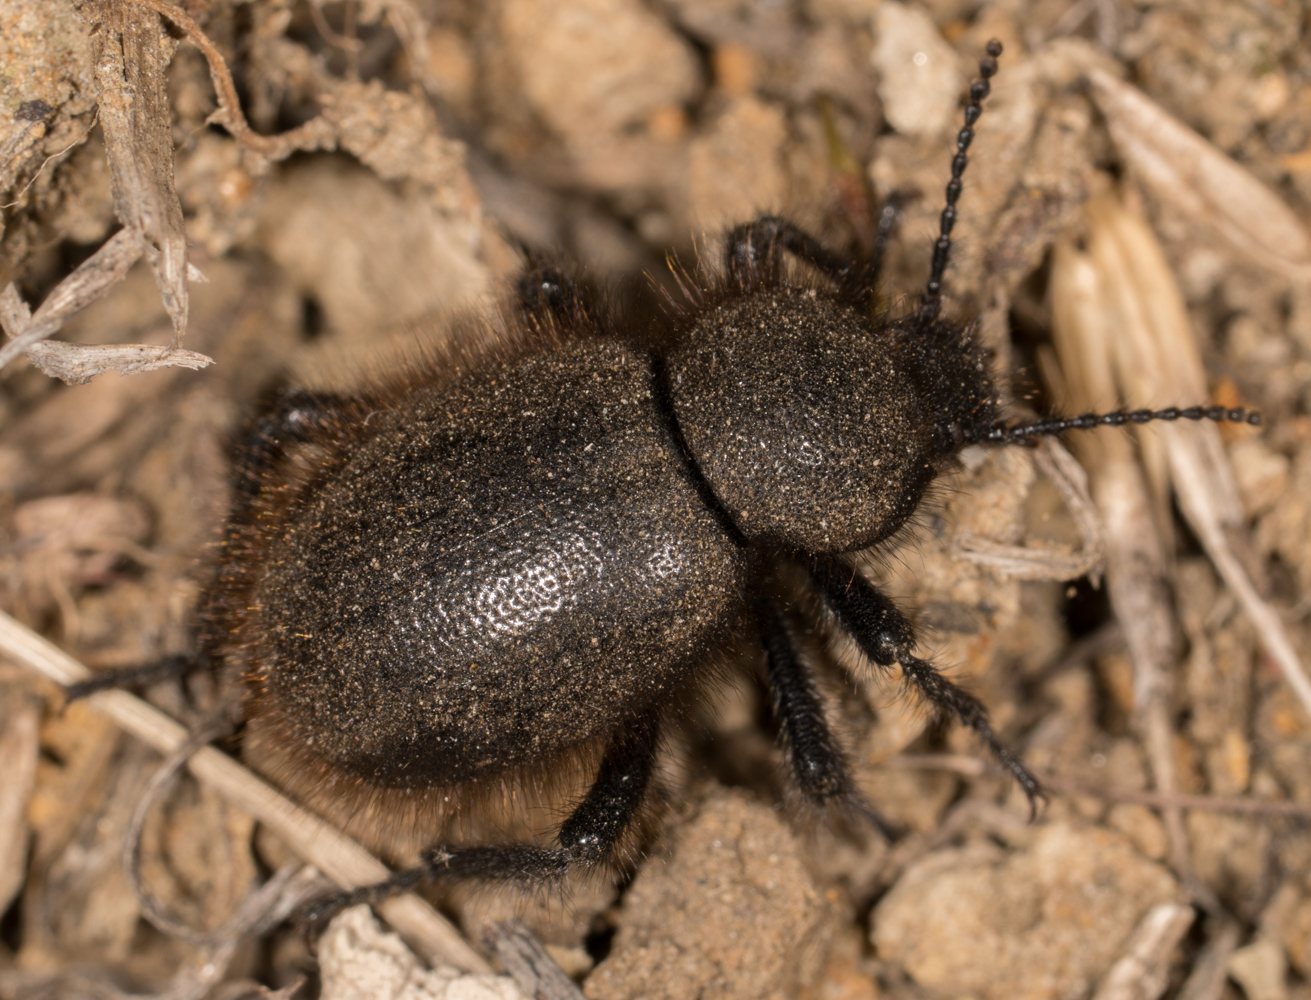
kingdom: Animalia
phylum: Arthropoda
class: Insecta
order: Coleoptera
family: Tenebrionidae
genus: Eleodes
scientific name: Eleodes osculans
